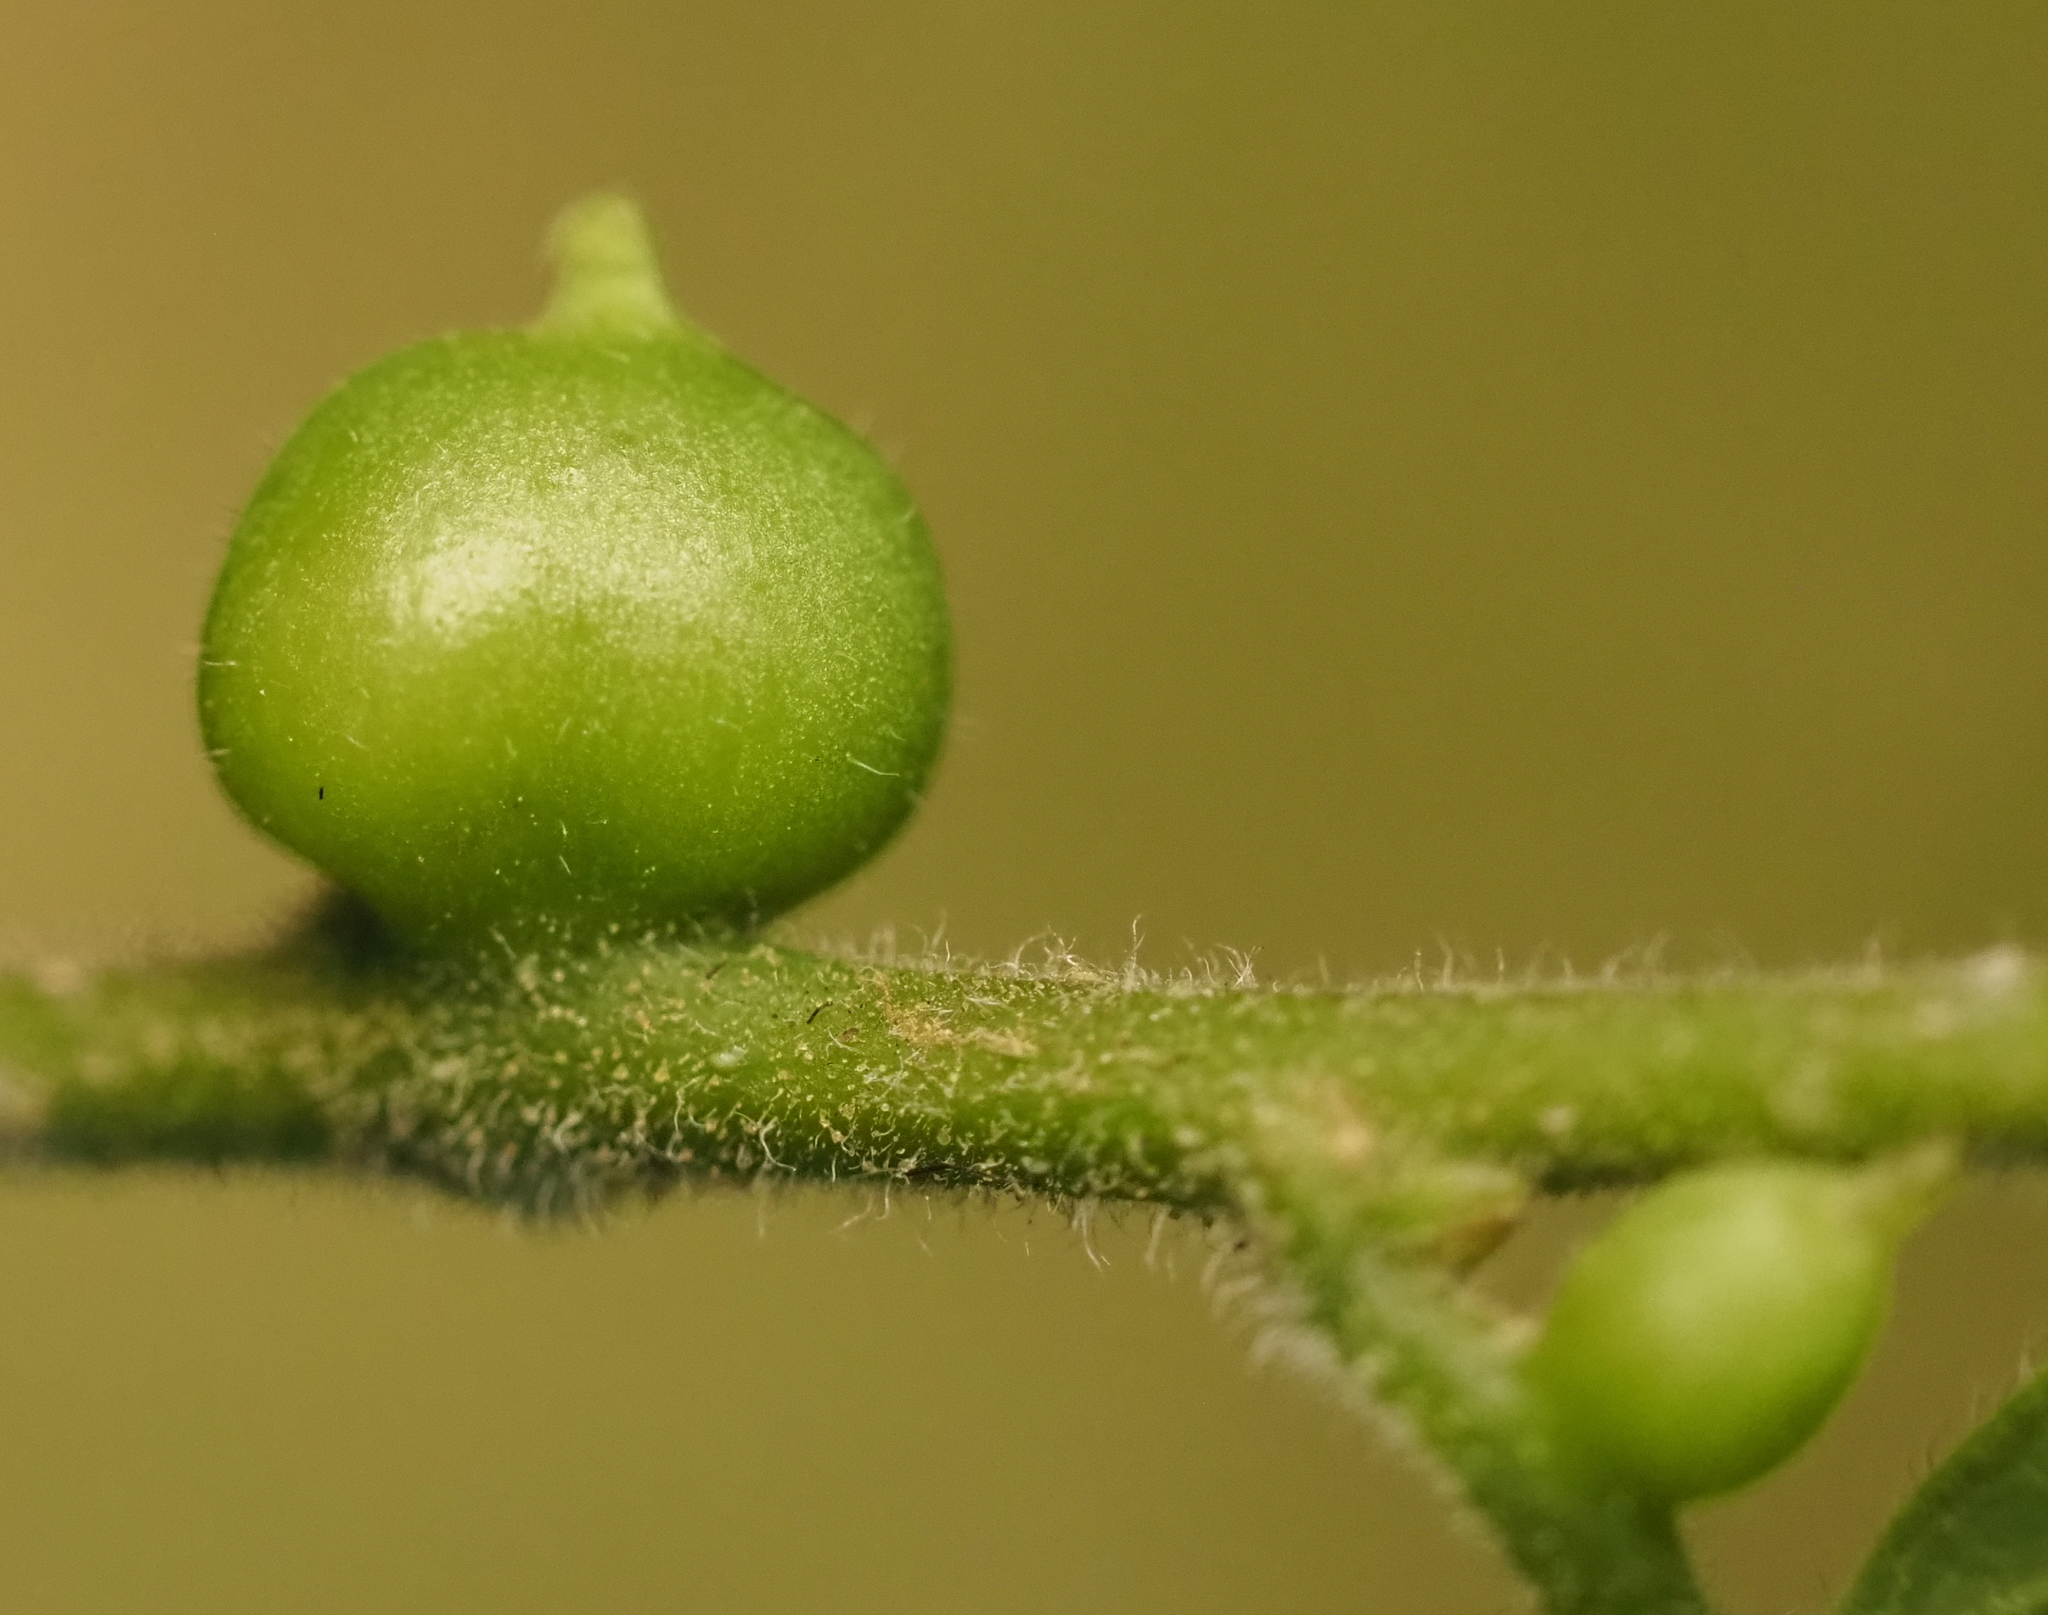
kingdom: Animalia
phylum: Arthropoda
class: Insecta
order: Diptera
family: Cecidomyiidae
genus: Celticecis
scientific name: Celticecis connata
